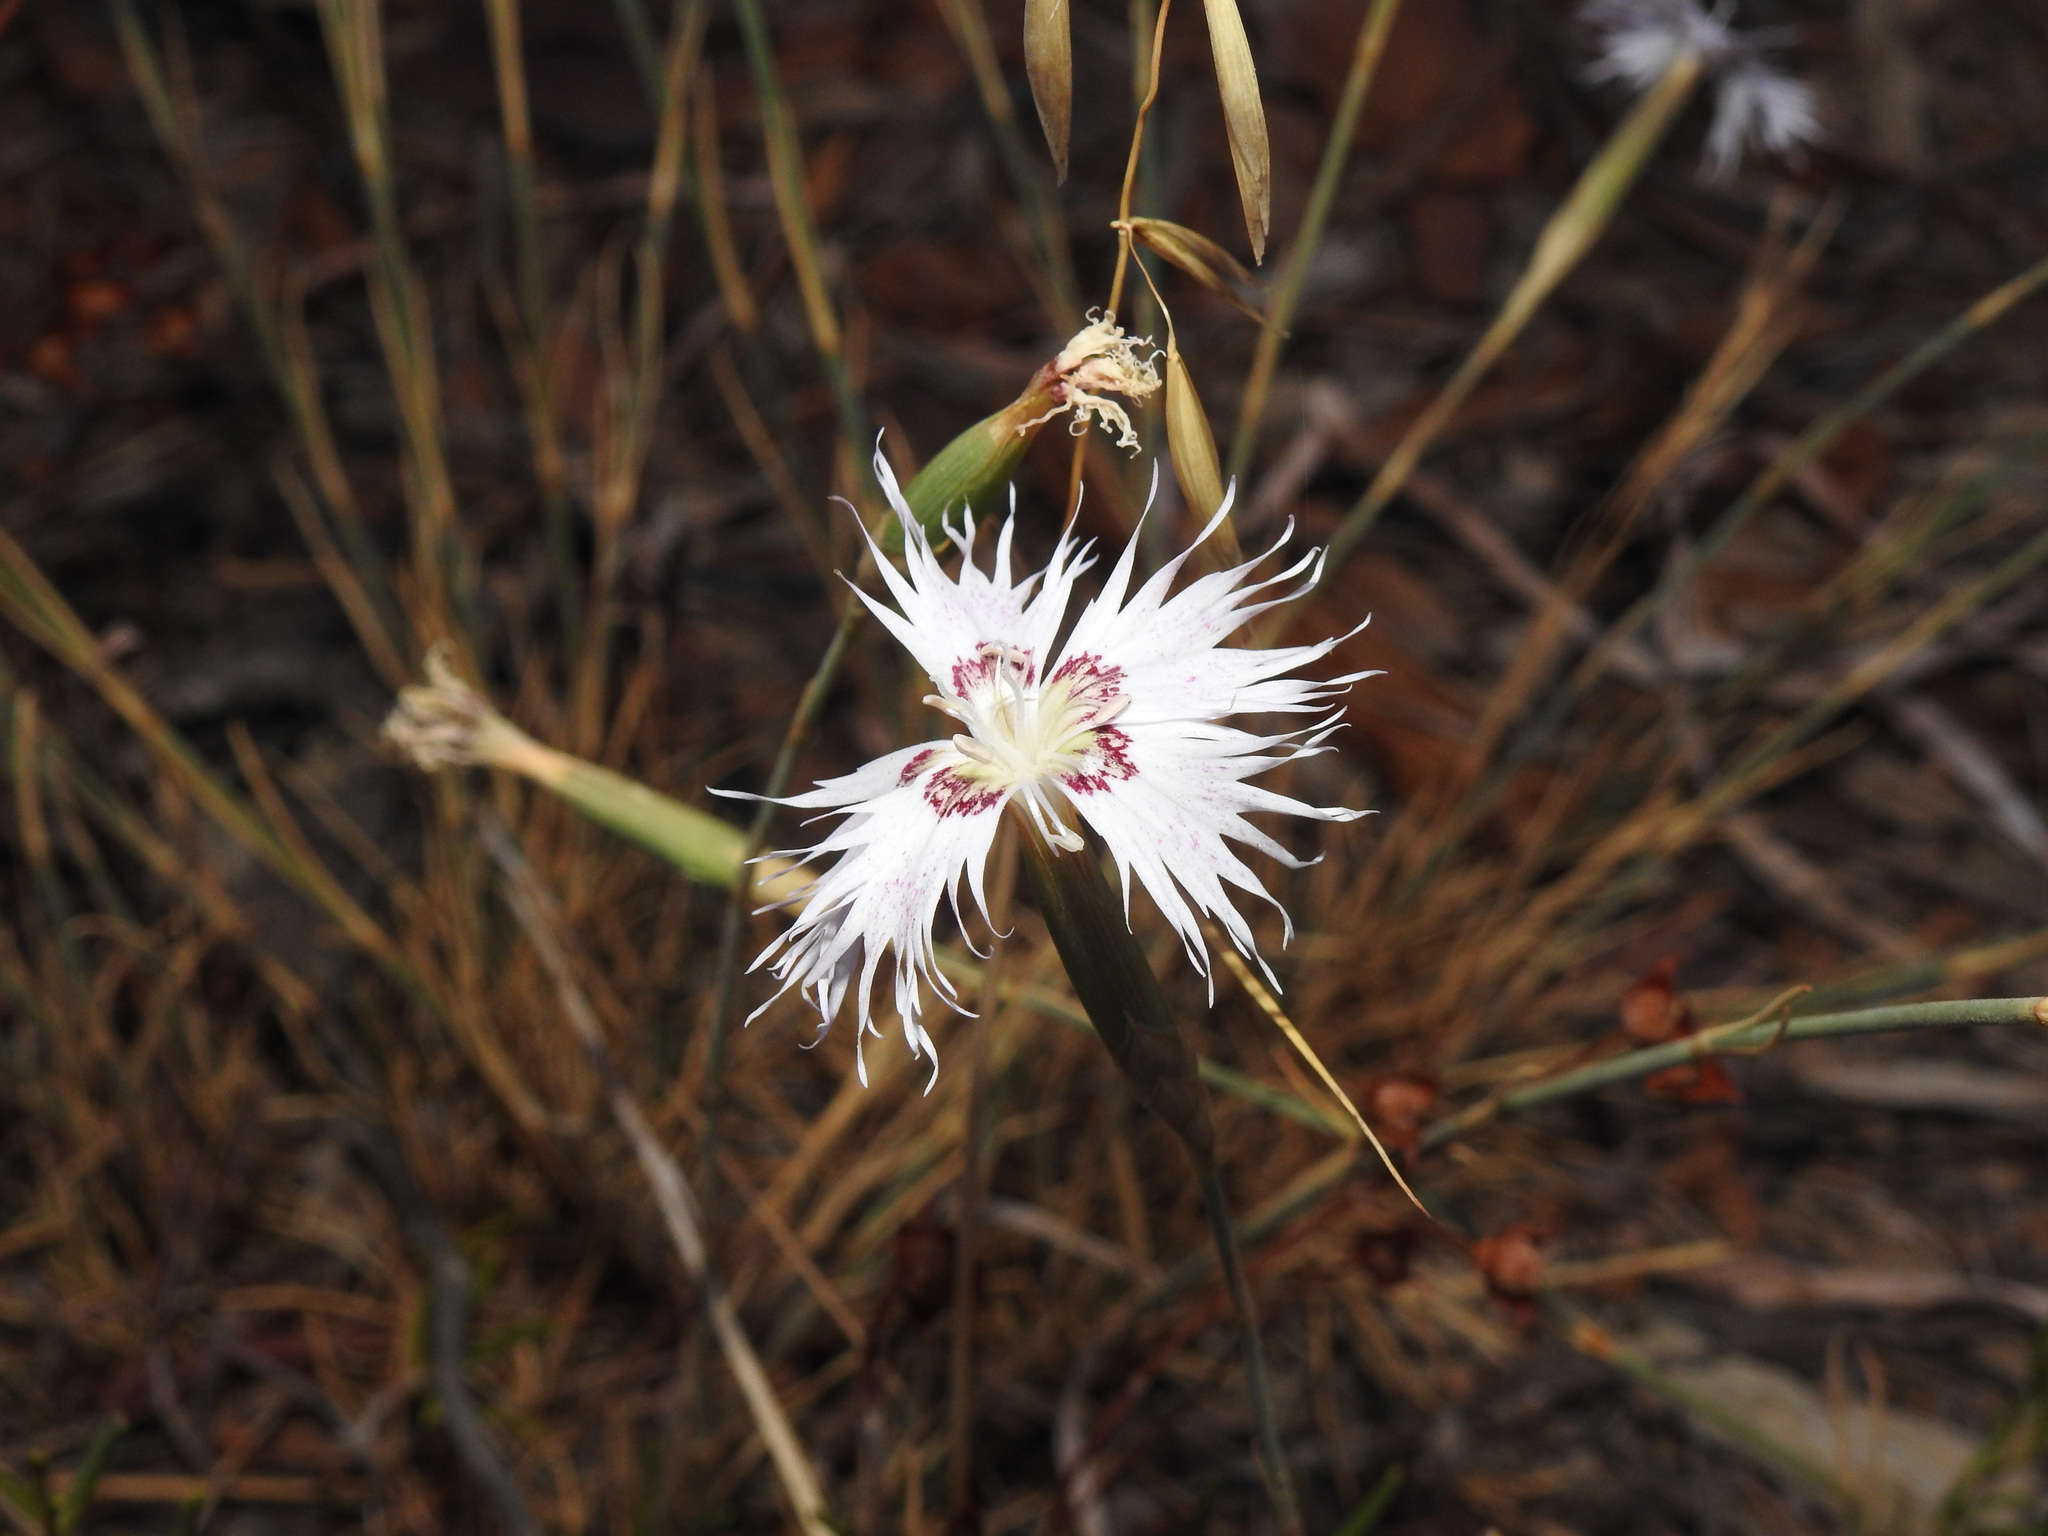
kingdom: Plantae
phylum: Tracheophyta
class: Magnoliopsida
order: Caryophyllales
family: Caryophyllaceae
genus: Dianthus
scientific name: Dianthus broteri
